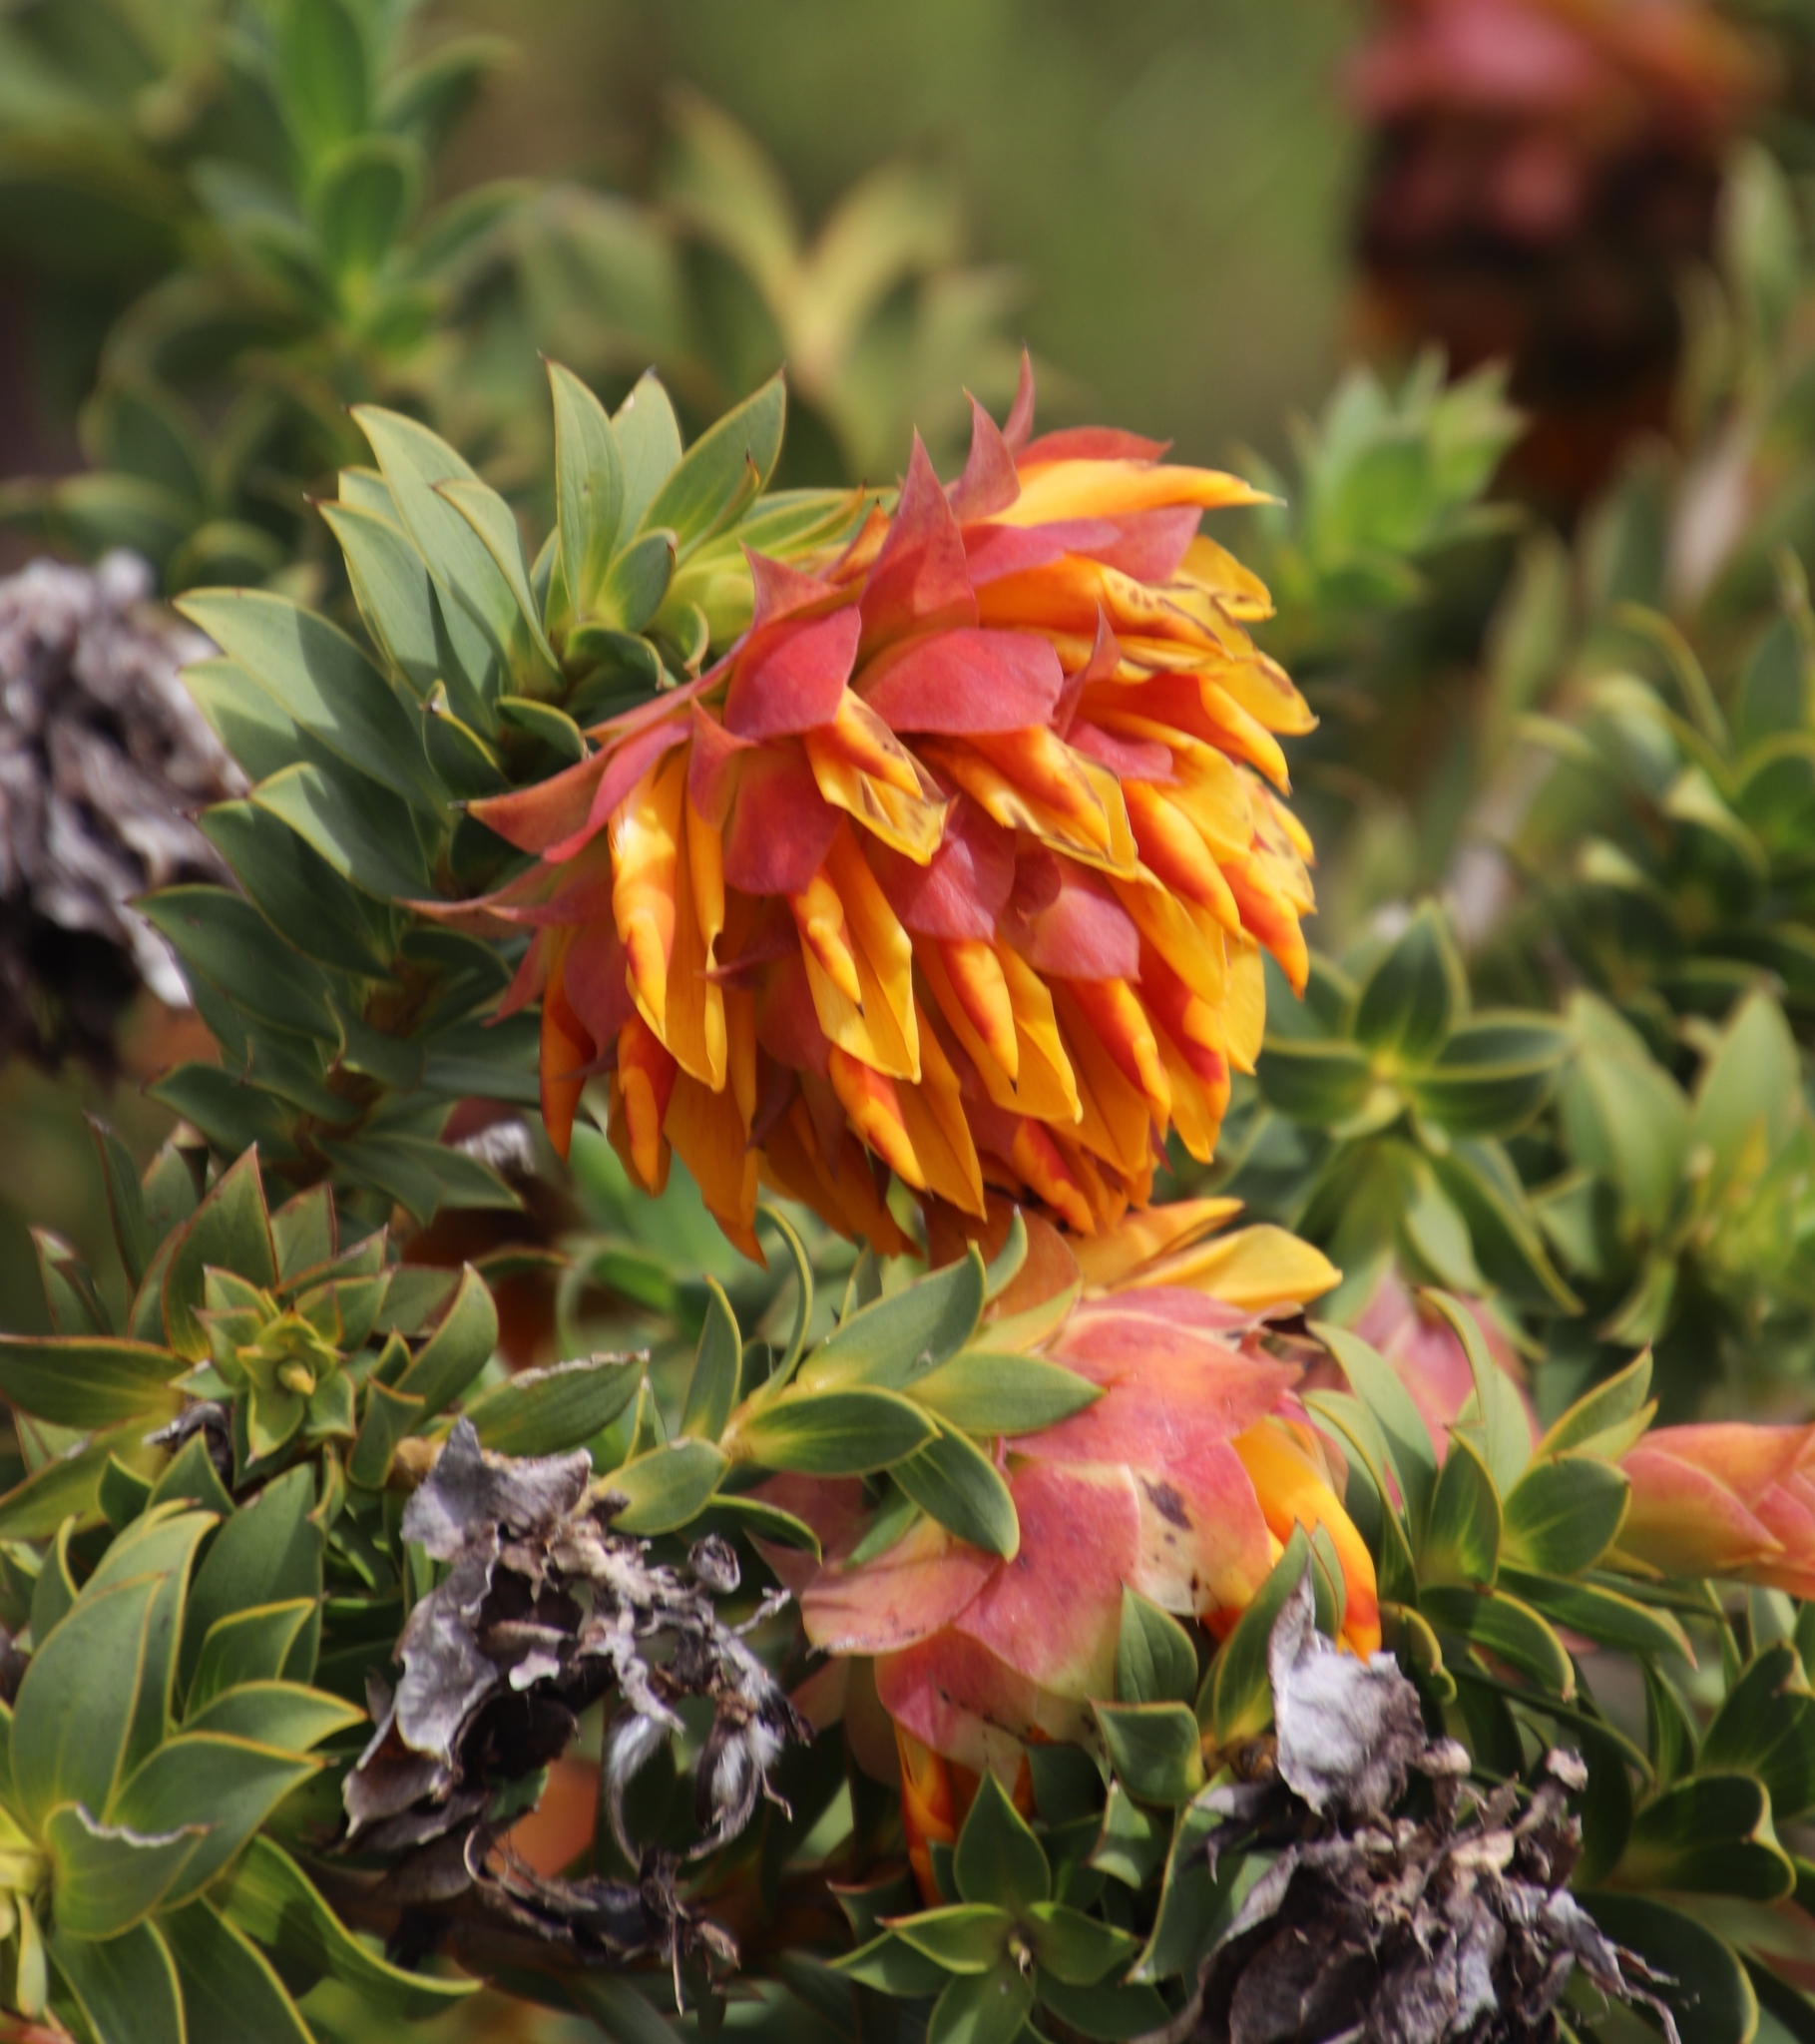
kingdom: Plantae
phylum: Tracheophyta
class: Magnoliopsida
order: Fabales
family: Fabaceae
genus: Liparia
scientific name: Liparia splendens
